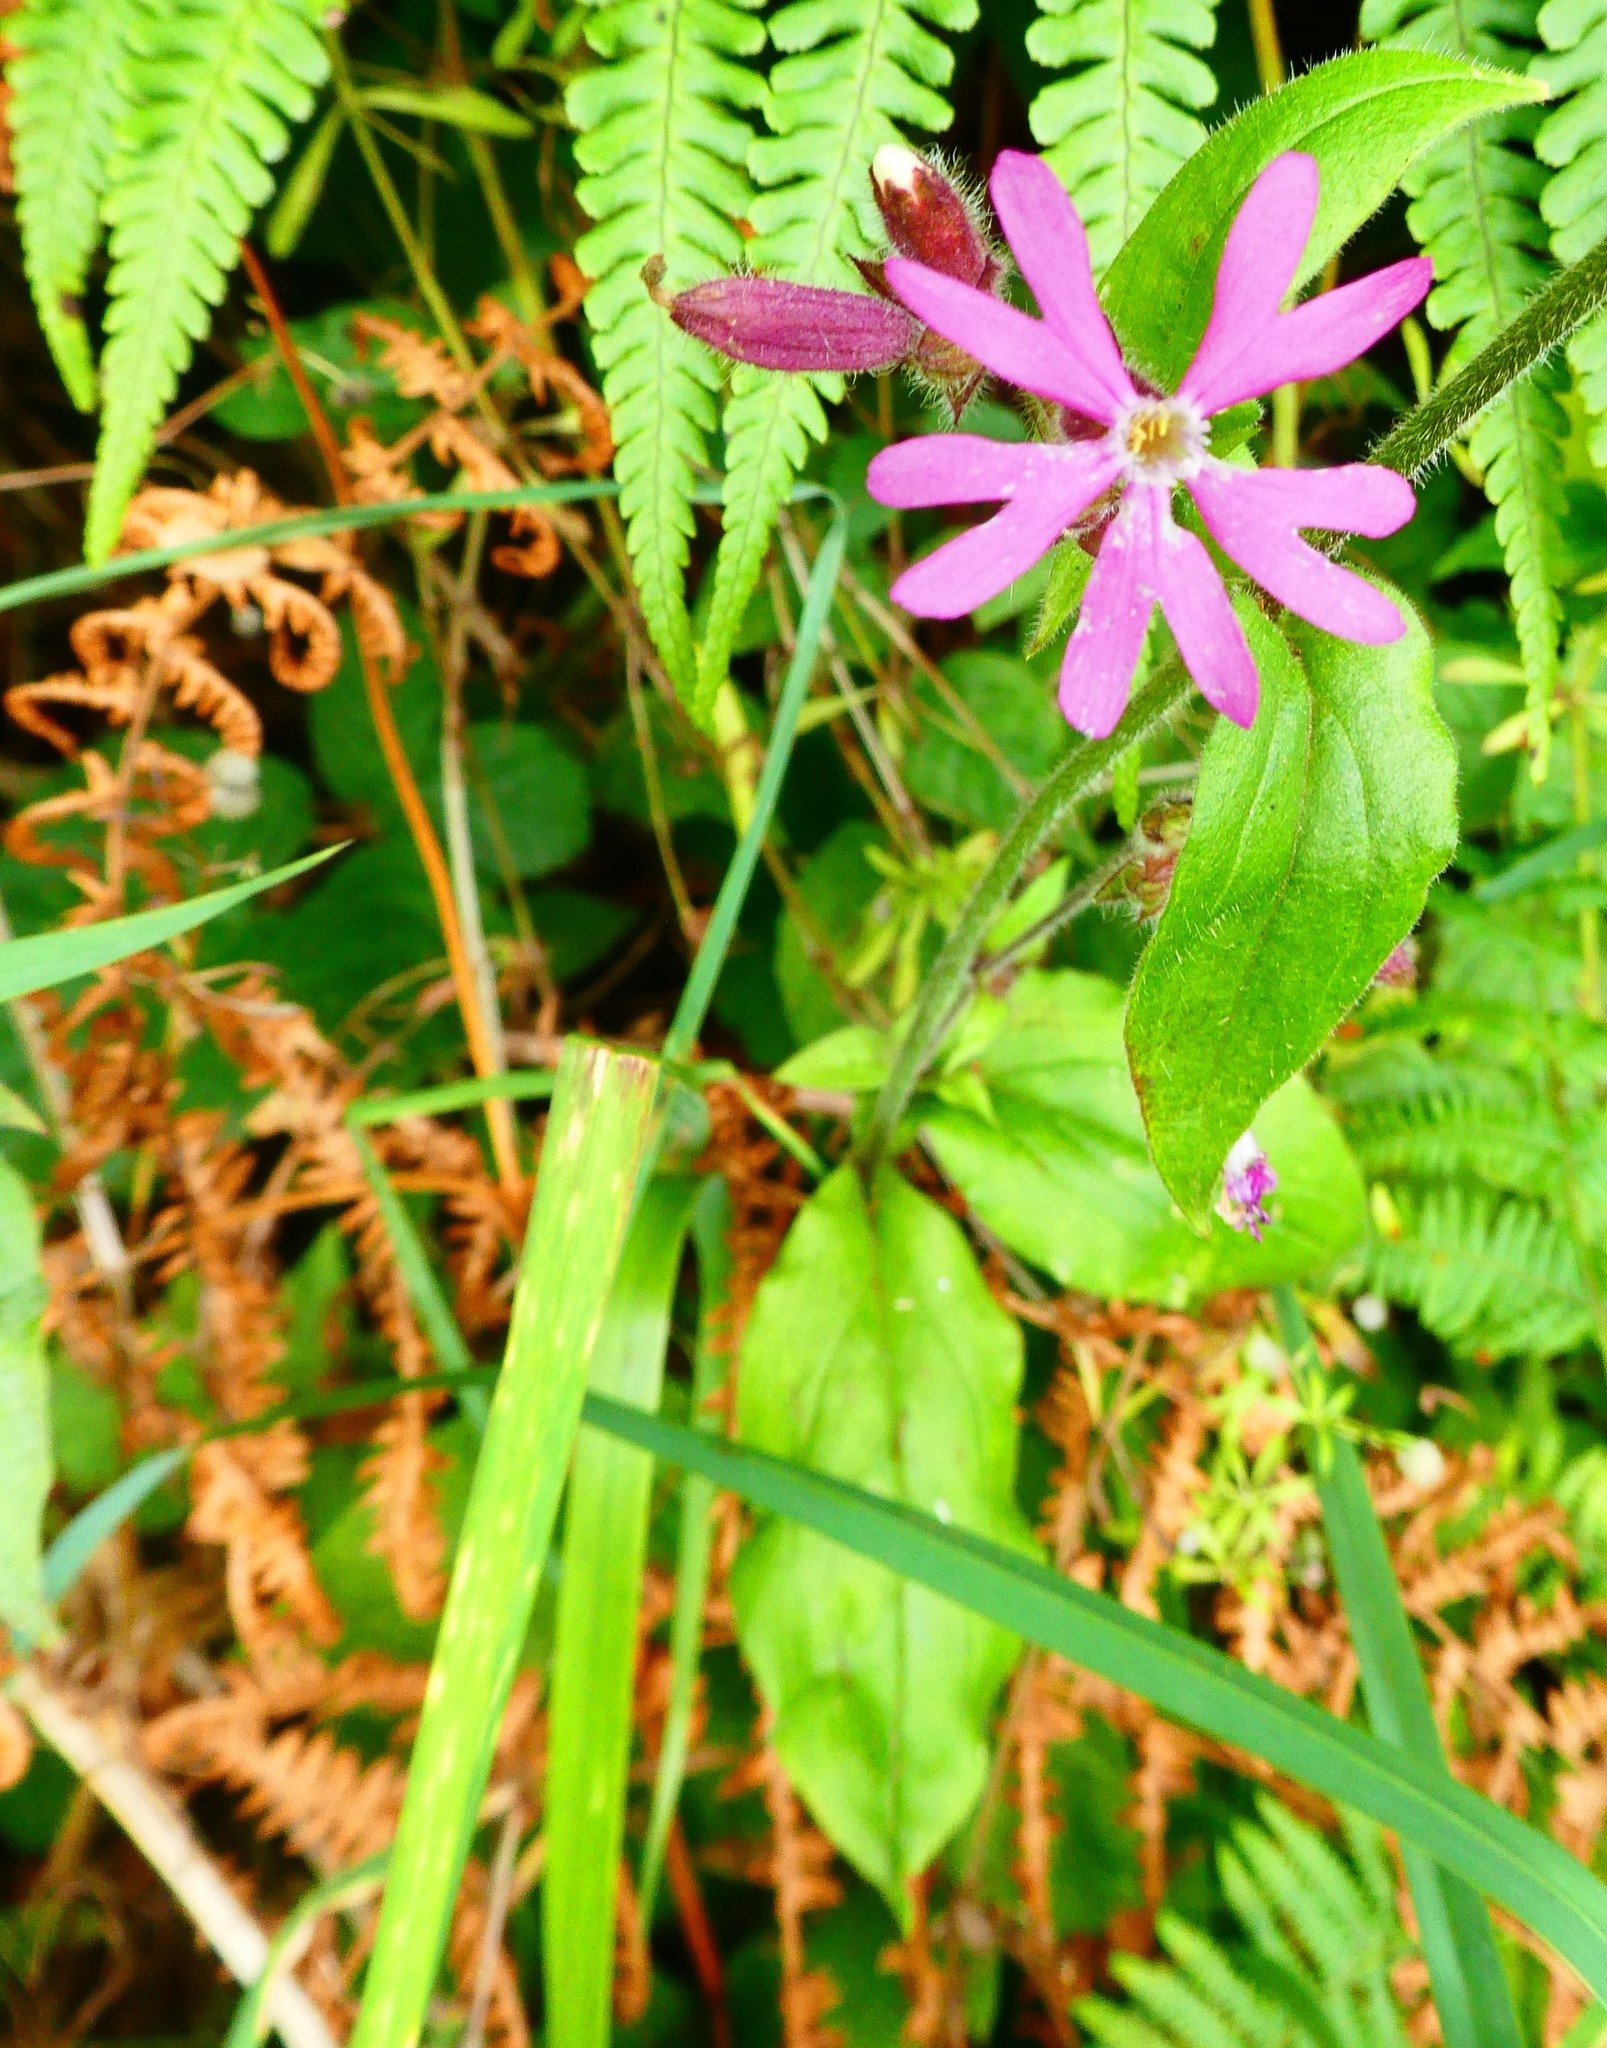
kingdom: Plantae
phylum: Tracheophyta
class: Magnoliopsida
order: Caryophyllales
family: Caryophyllaceae
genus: Silene
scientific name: Silene dioica
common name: Red campion
